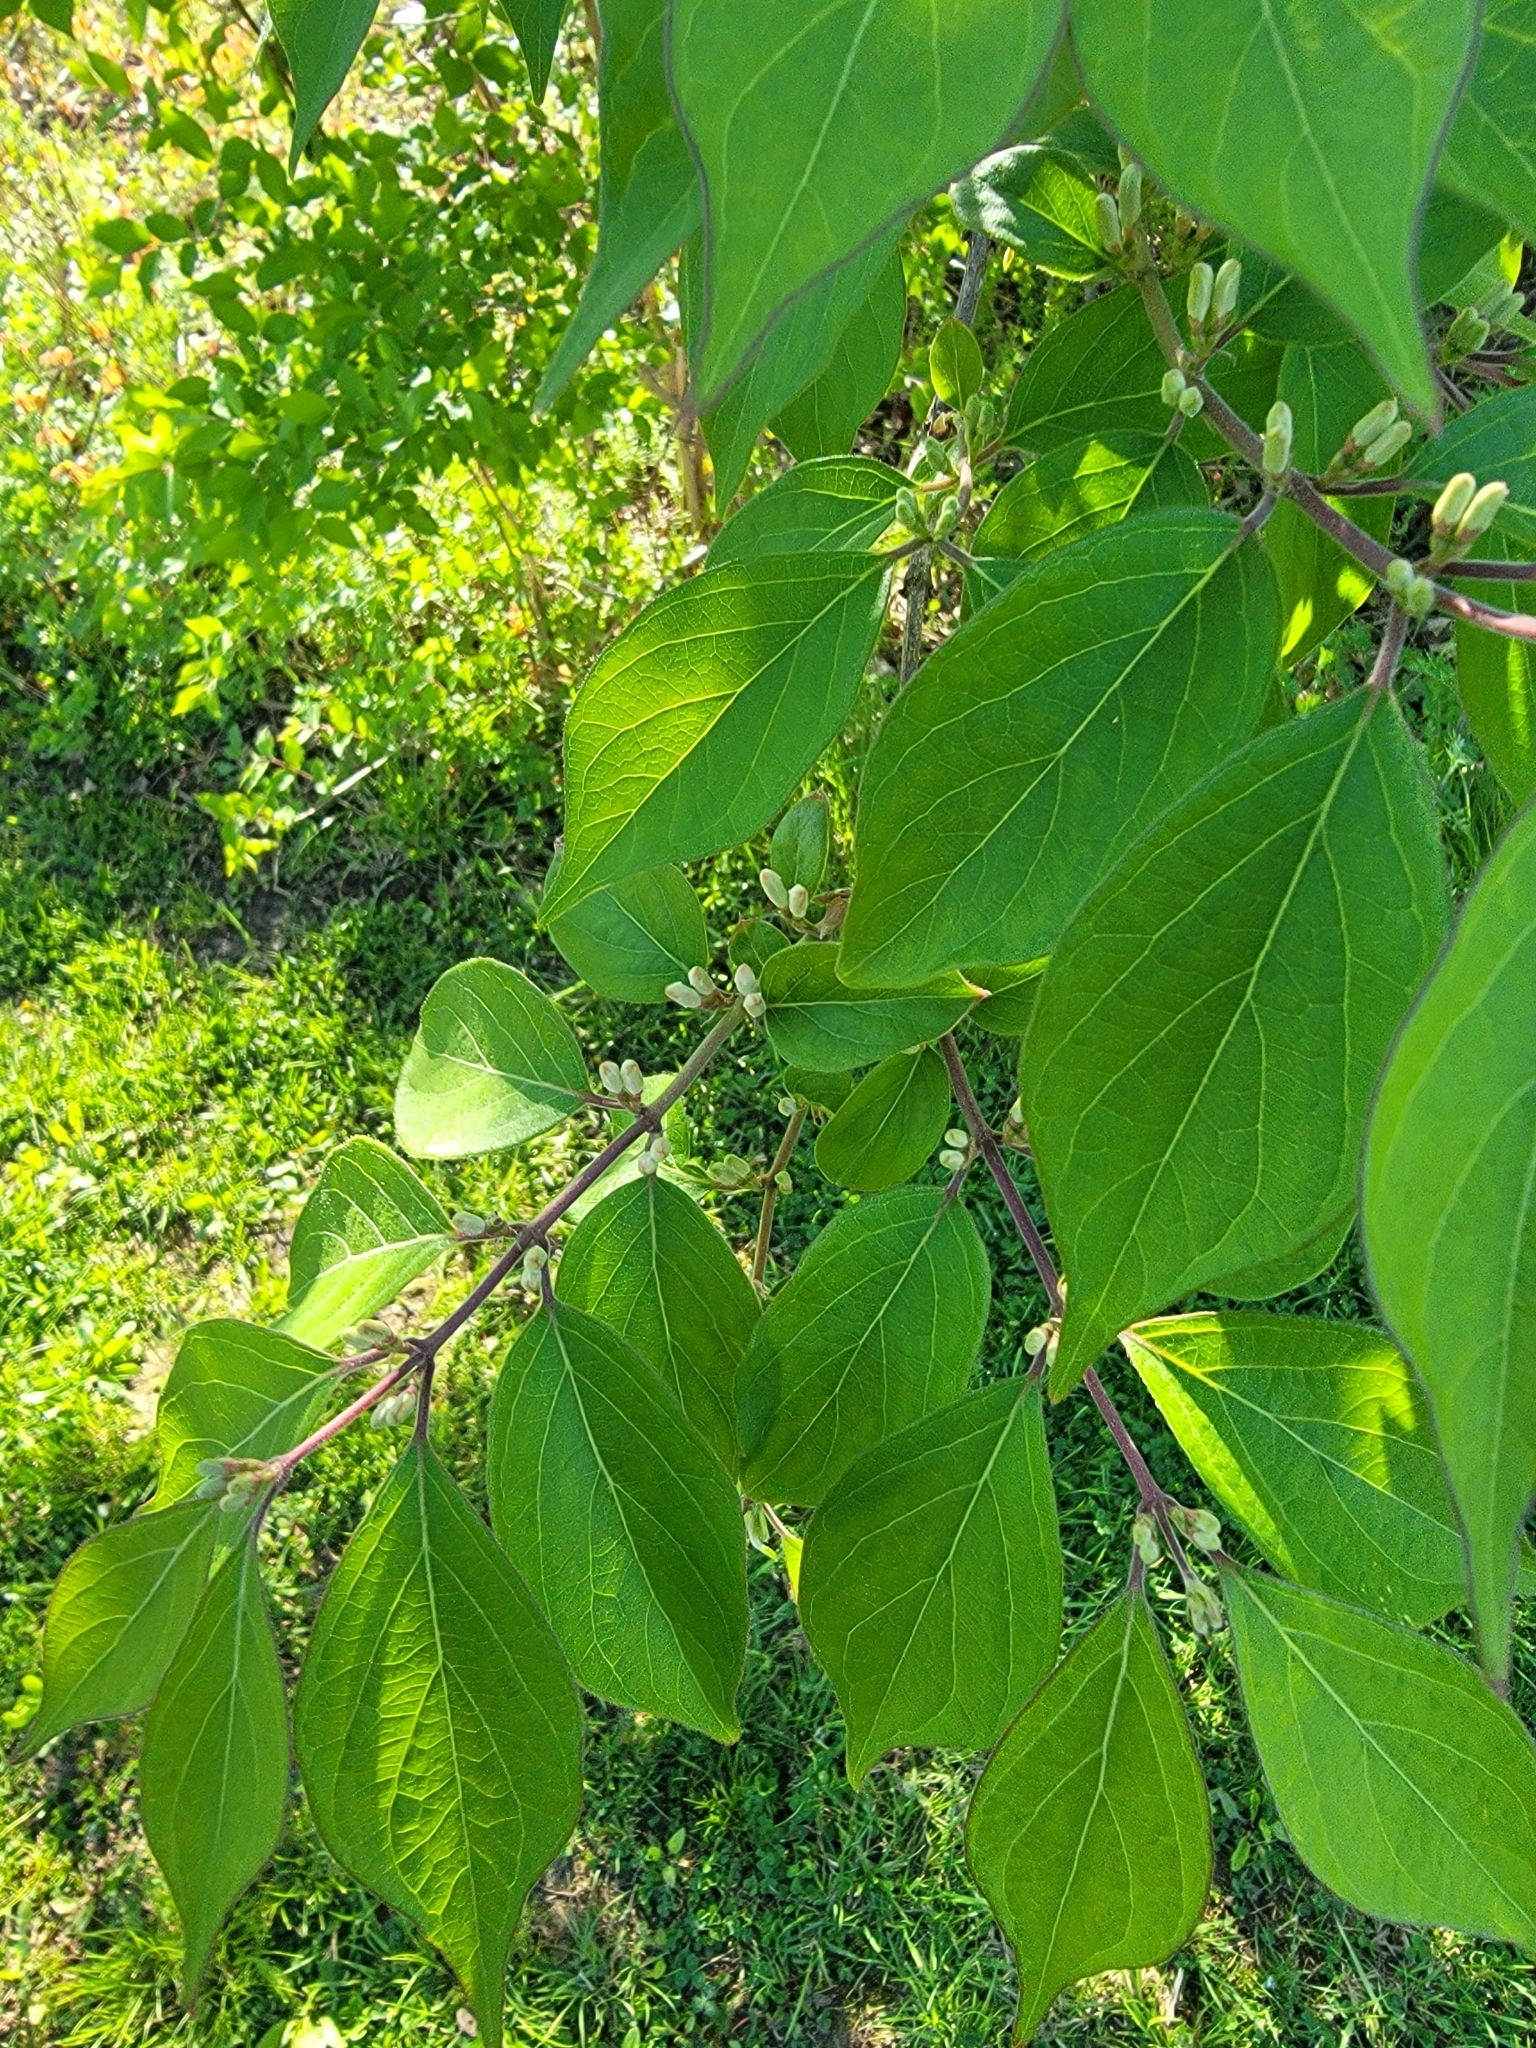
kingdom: Plantae
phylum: Tracheophyta
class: Magnoliopsida
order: Dipsacales
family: Caprifoliaceae
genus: Lonicera
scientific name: Lonicera maackii
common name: Amur honeysuckle
